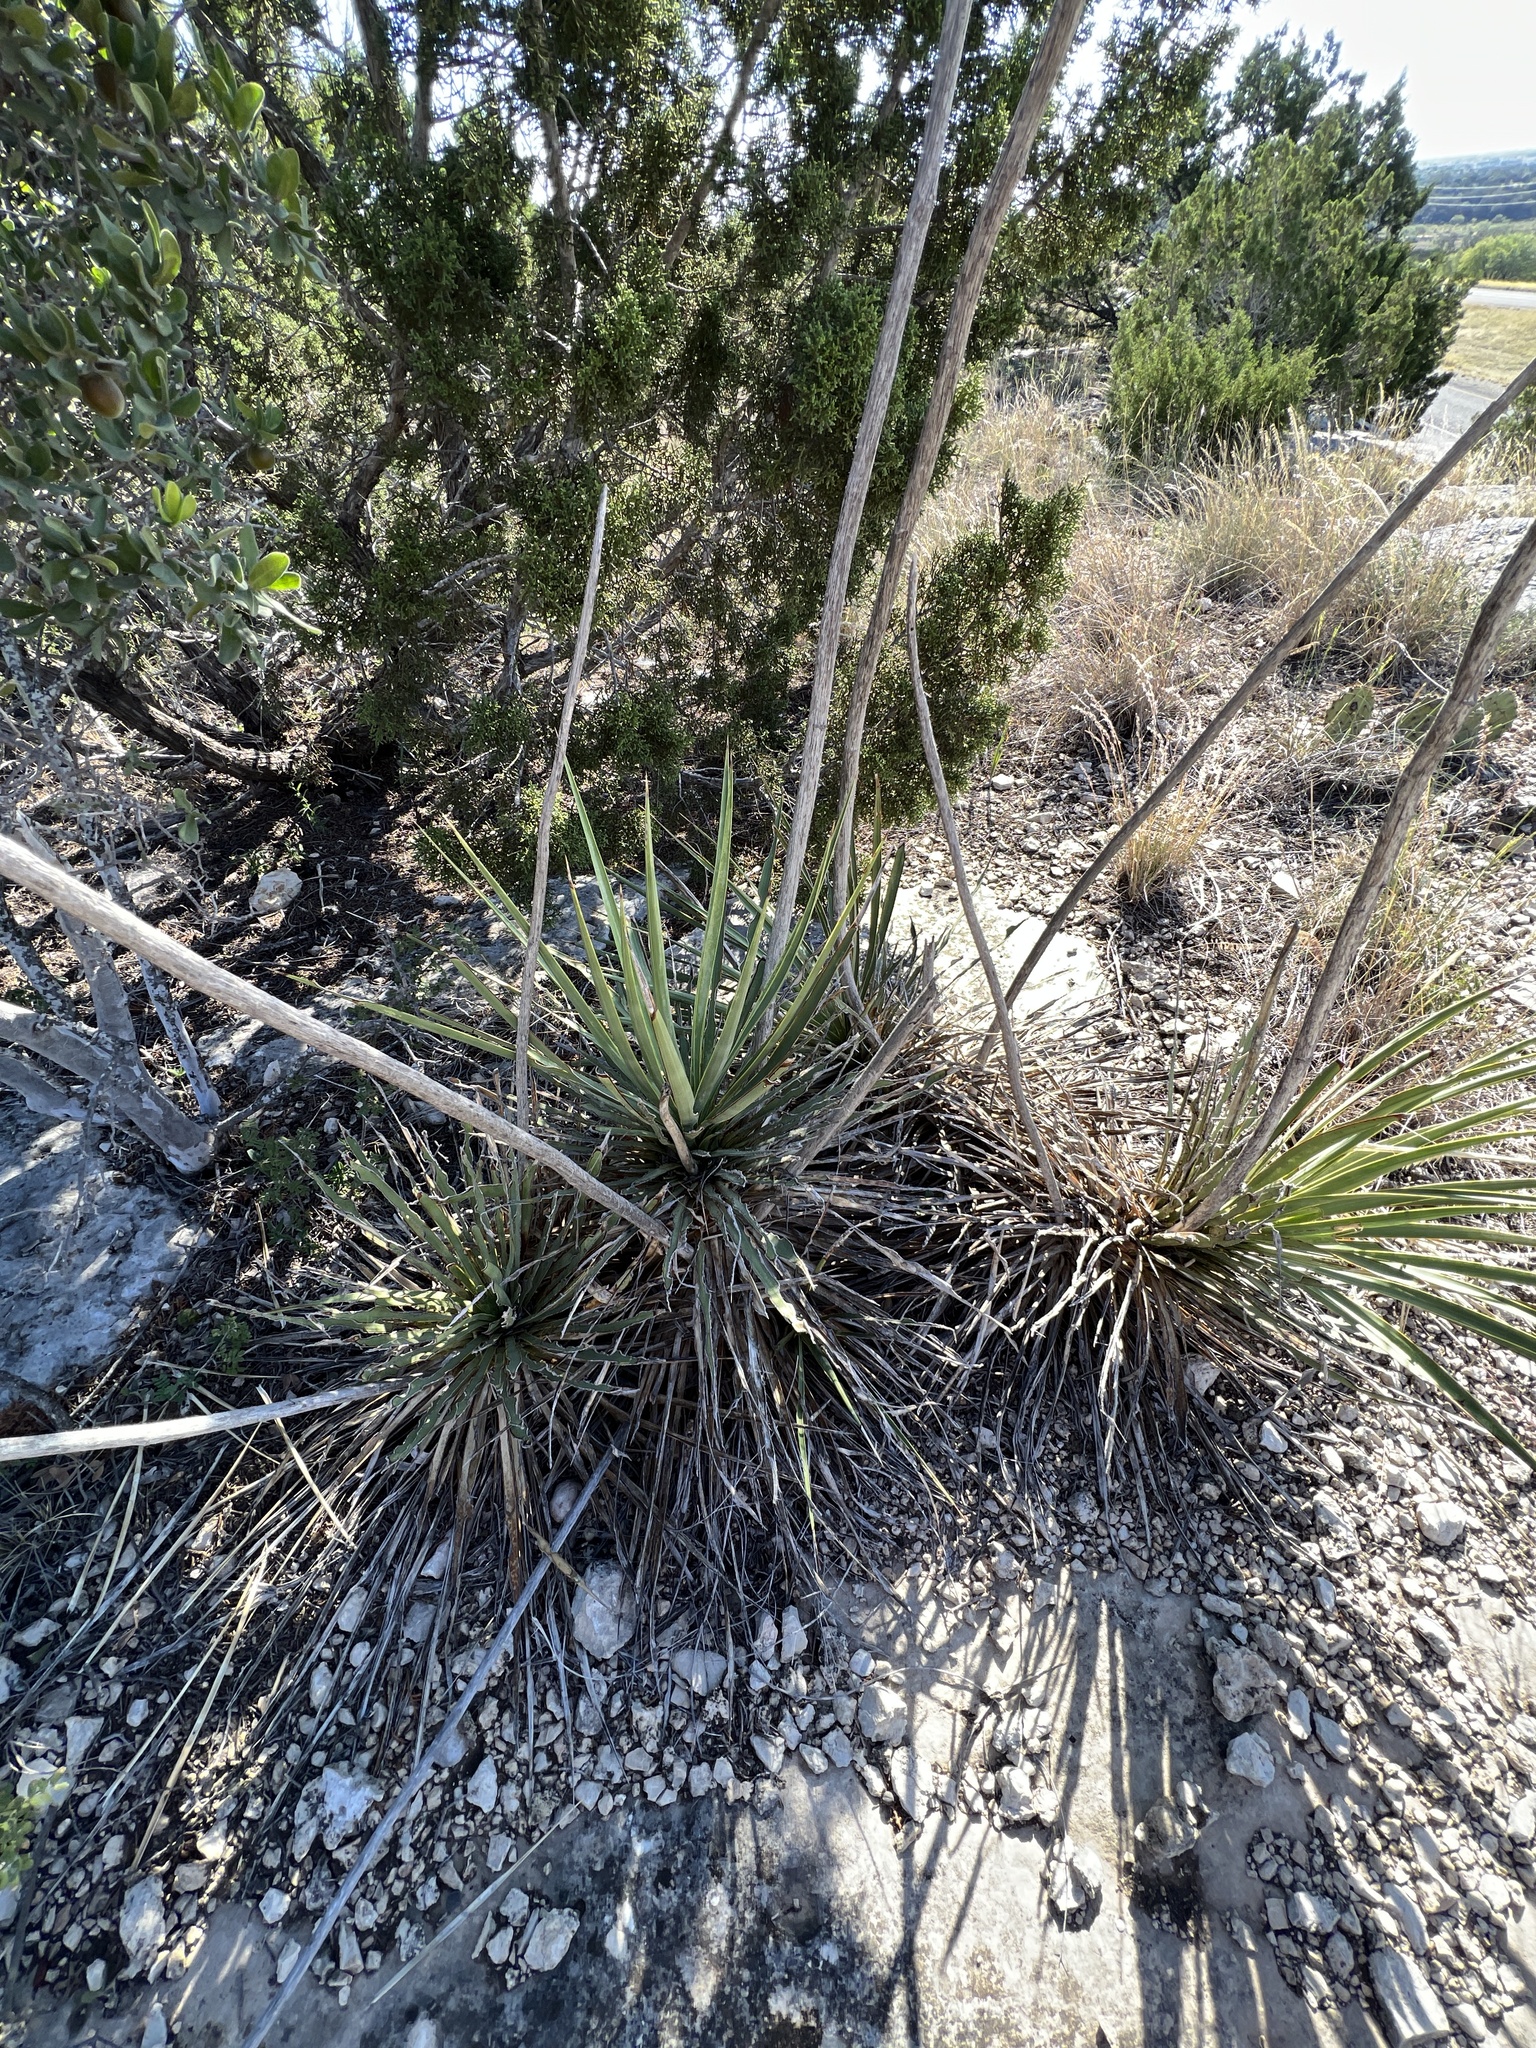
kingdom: Plantae
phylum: Tracheophyta
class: Liliopsida
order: Asparagales
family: Asparagaceae
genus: Yucca
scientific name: Yucca reverchonii
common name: San angelo yucca
